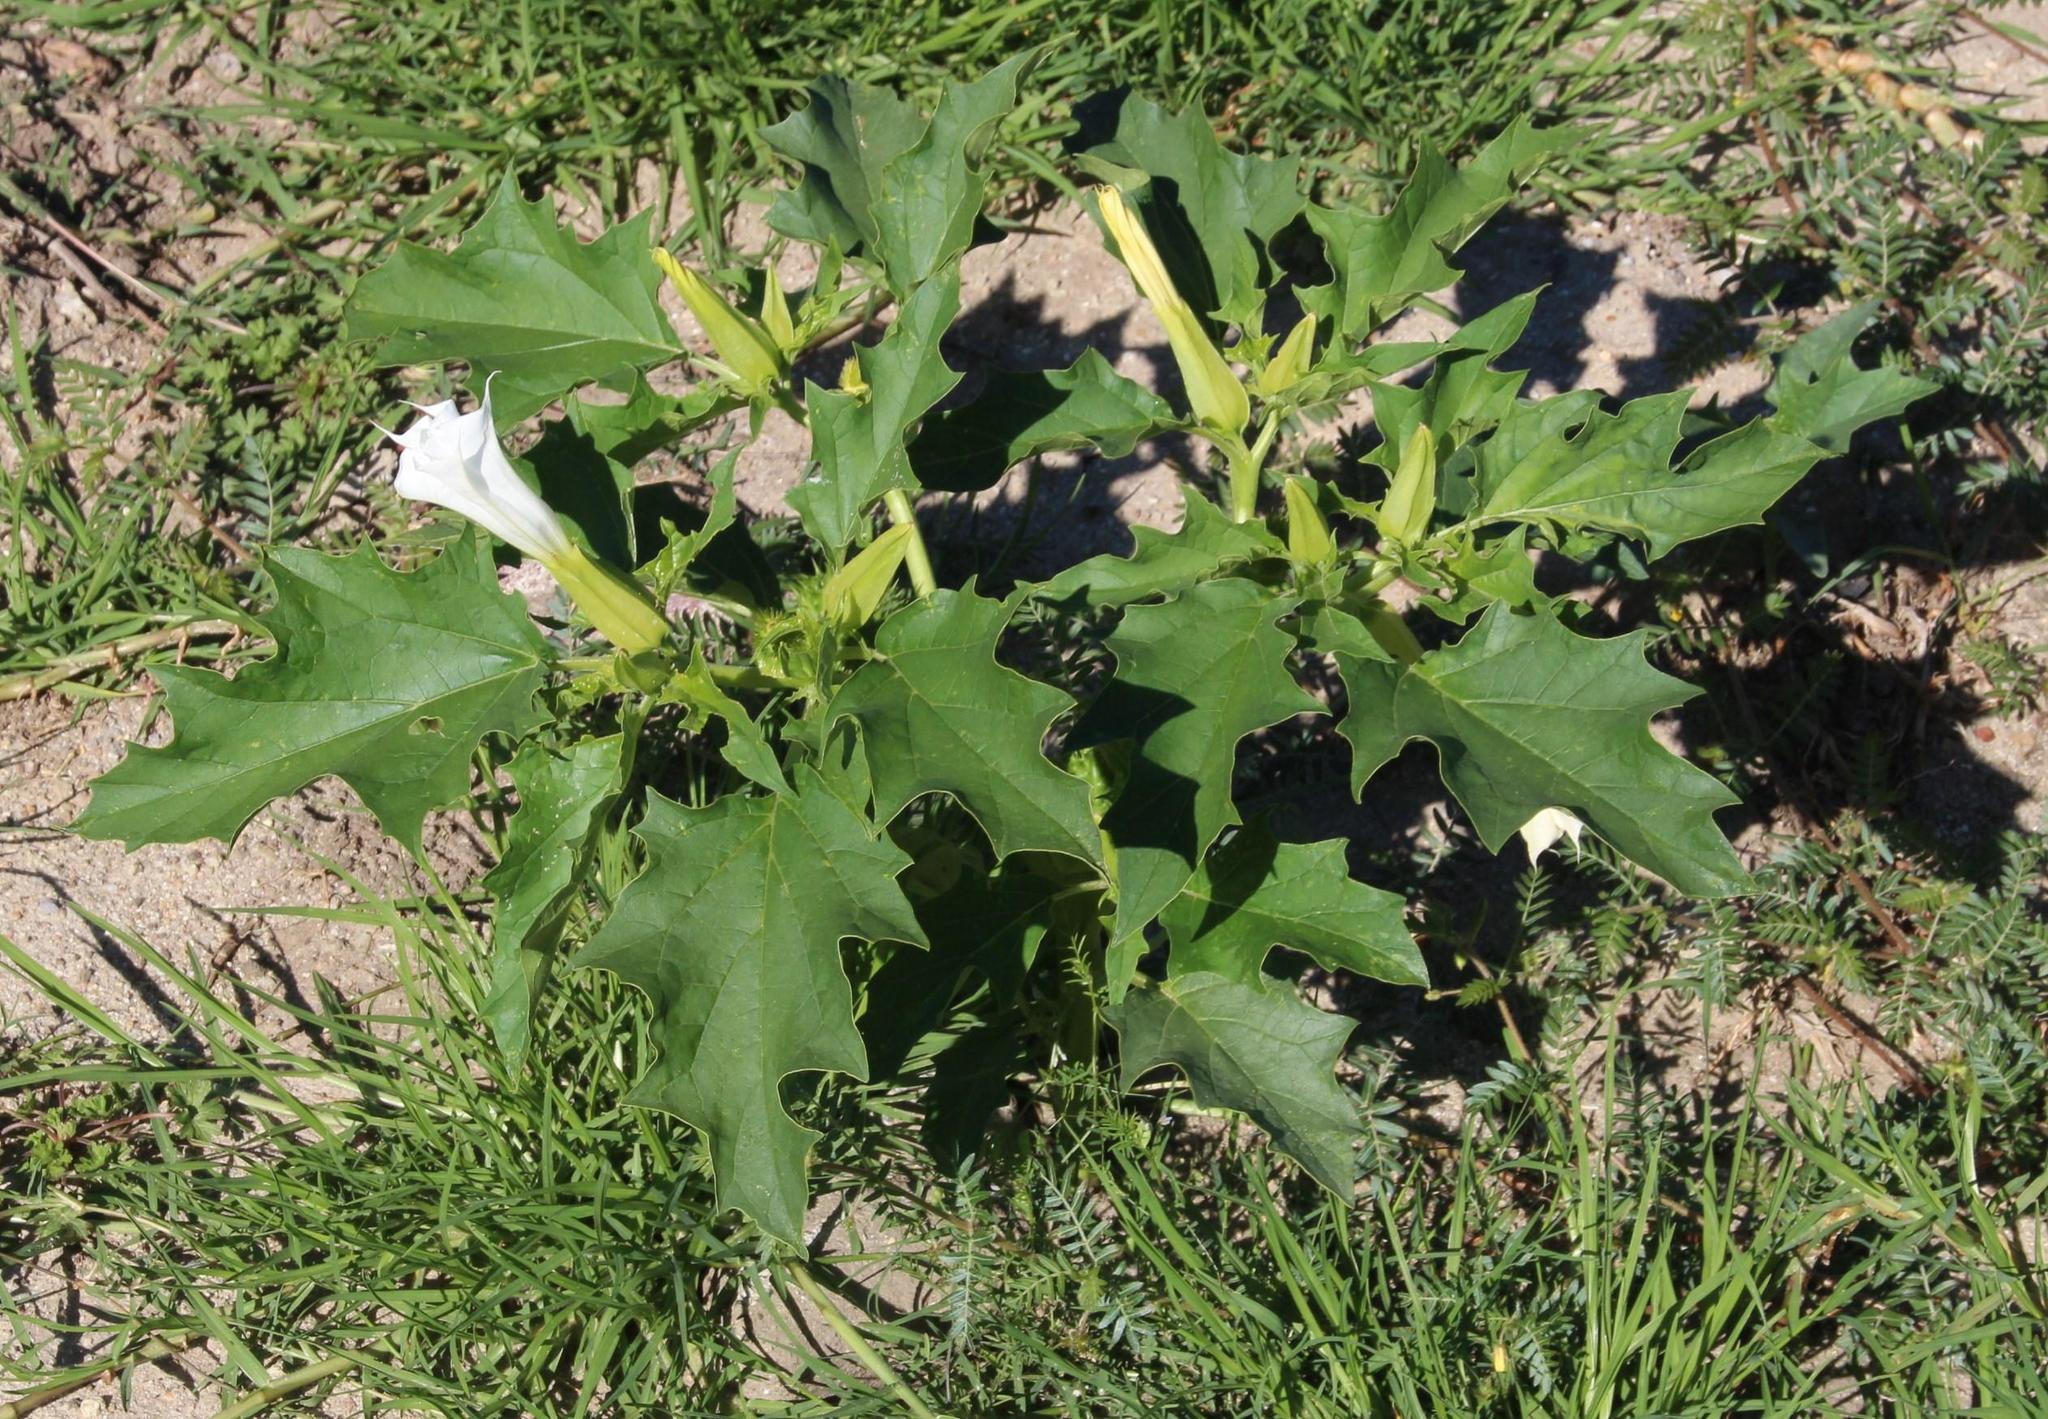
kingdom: Plantae
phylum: Tracheophyta
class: Magnoliopsida
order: Solanales
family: Solanaceae
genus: Datura
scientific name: Datura stramonium
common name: Thorn-apple
